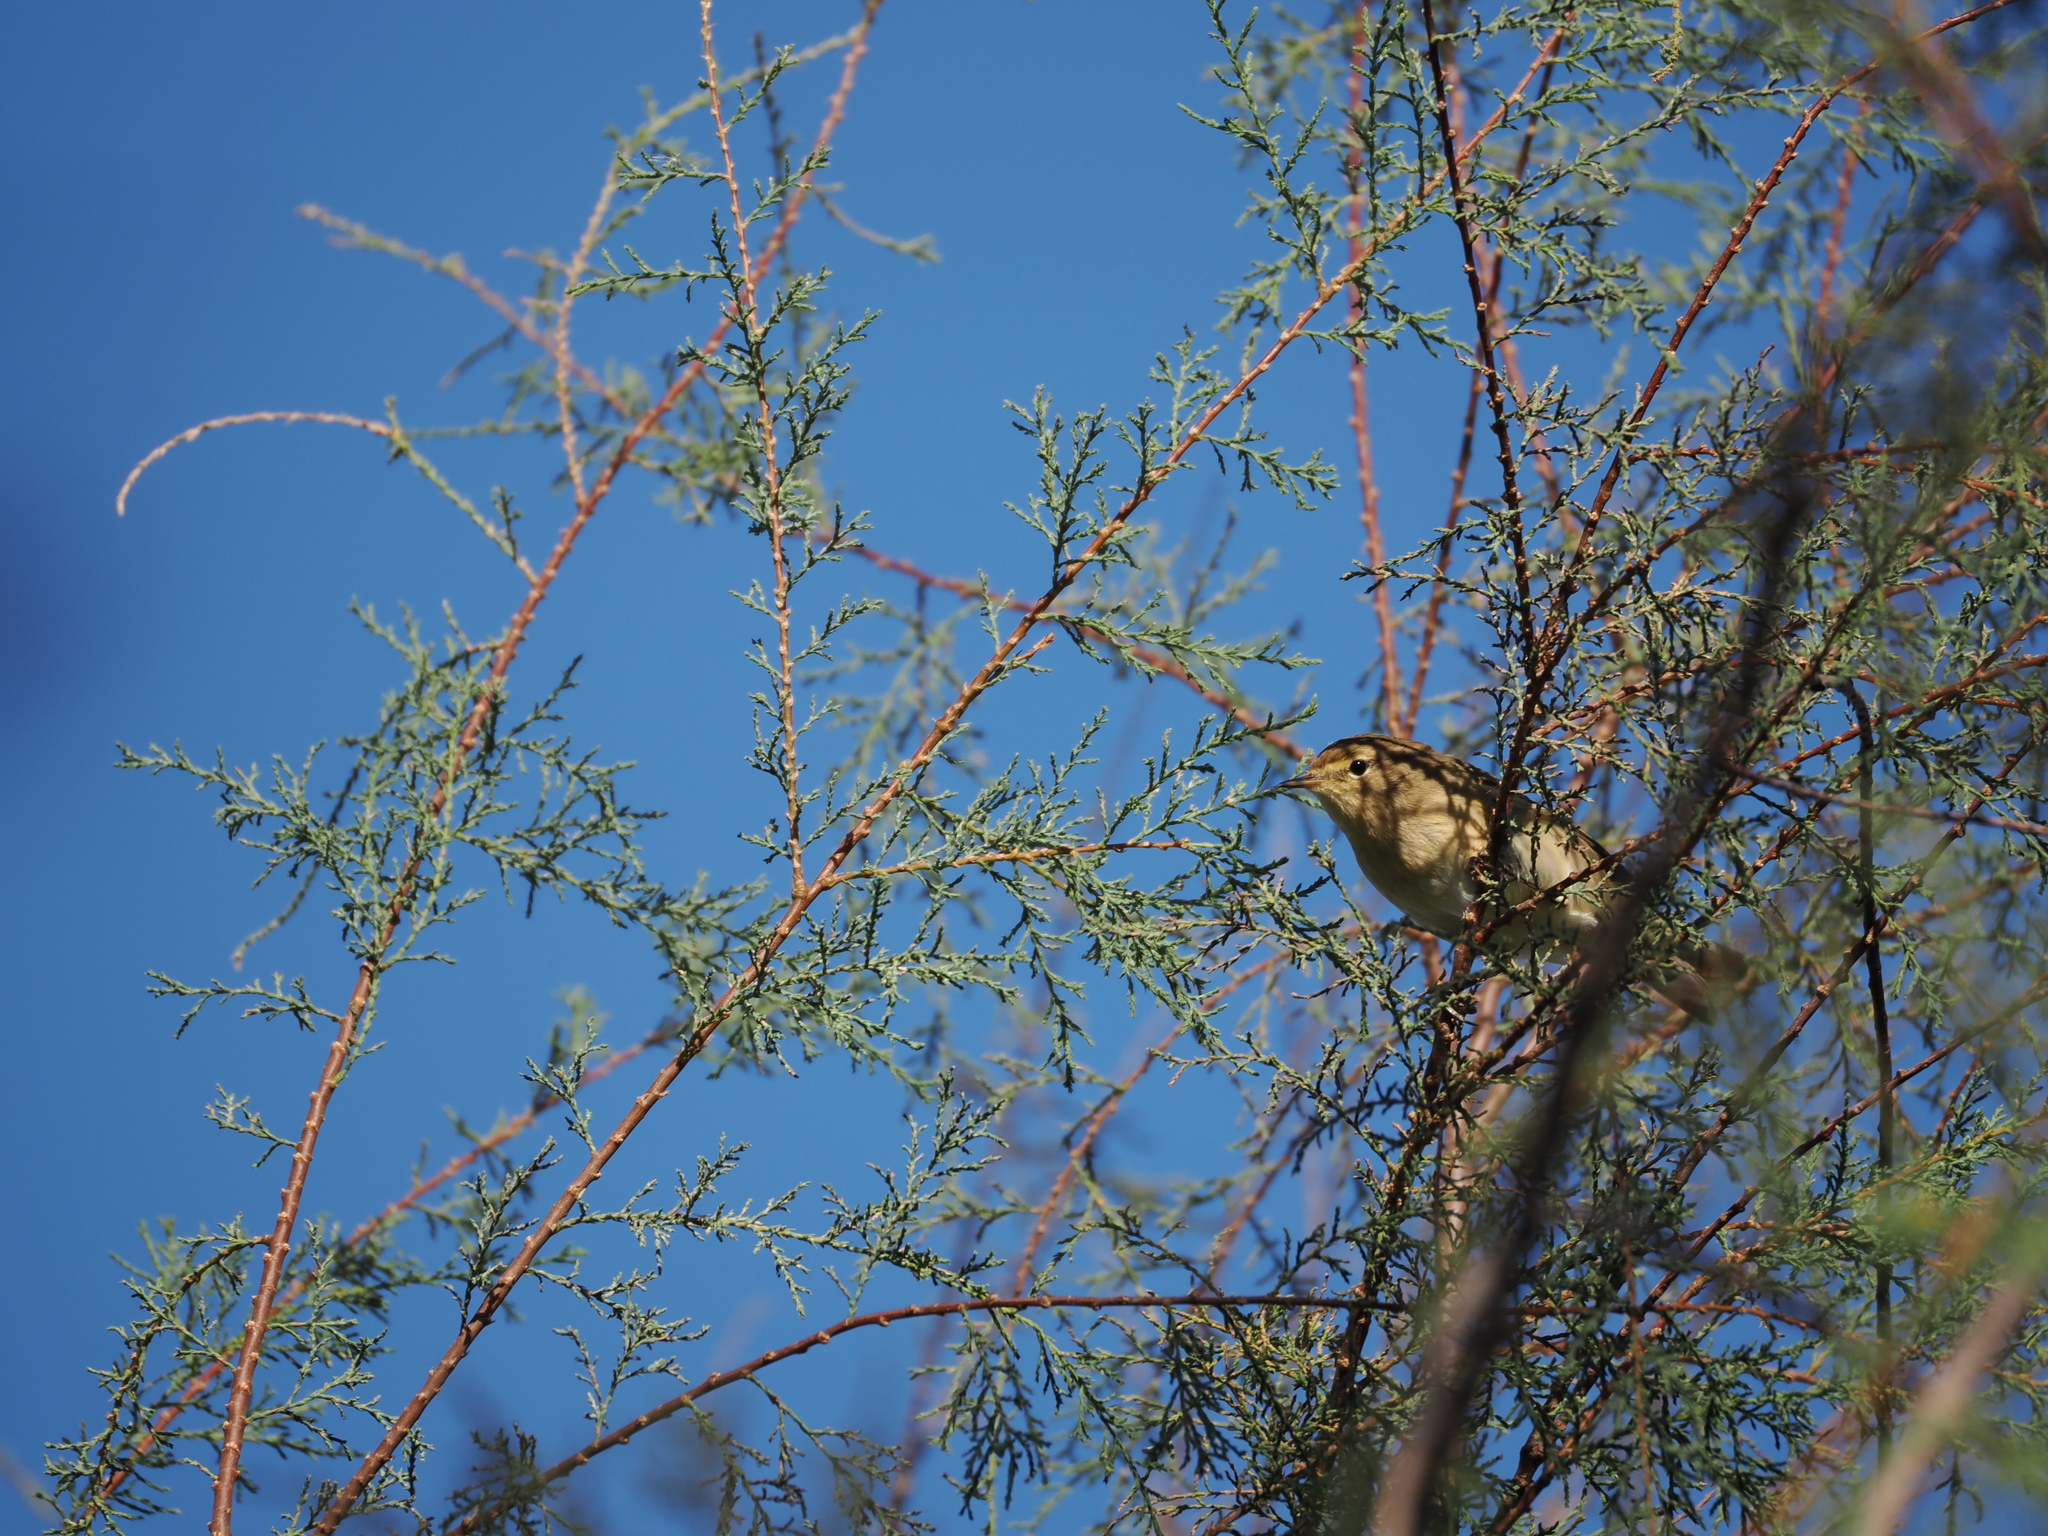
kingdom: Animalia
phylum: Chordata
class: Aves
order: Passeriformes
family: Phylloscopidae
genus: Phylloscopus
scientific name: Phylloscopus collybita
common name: Common chiffchaff
